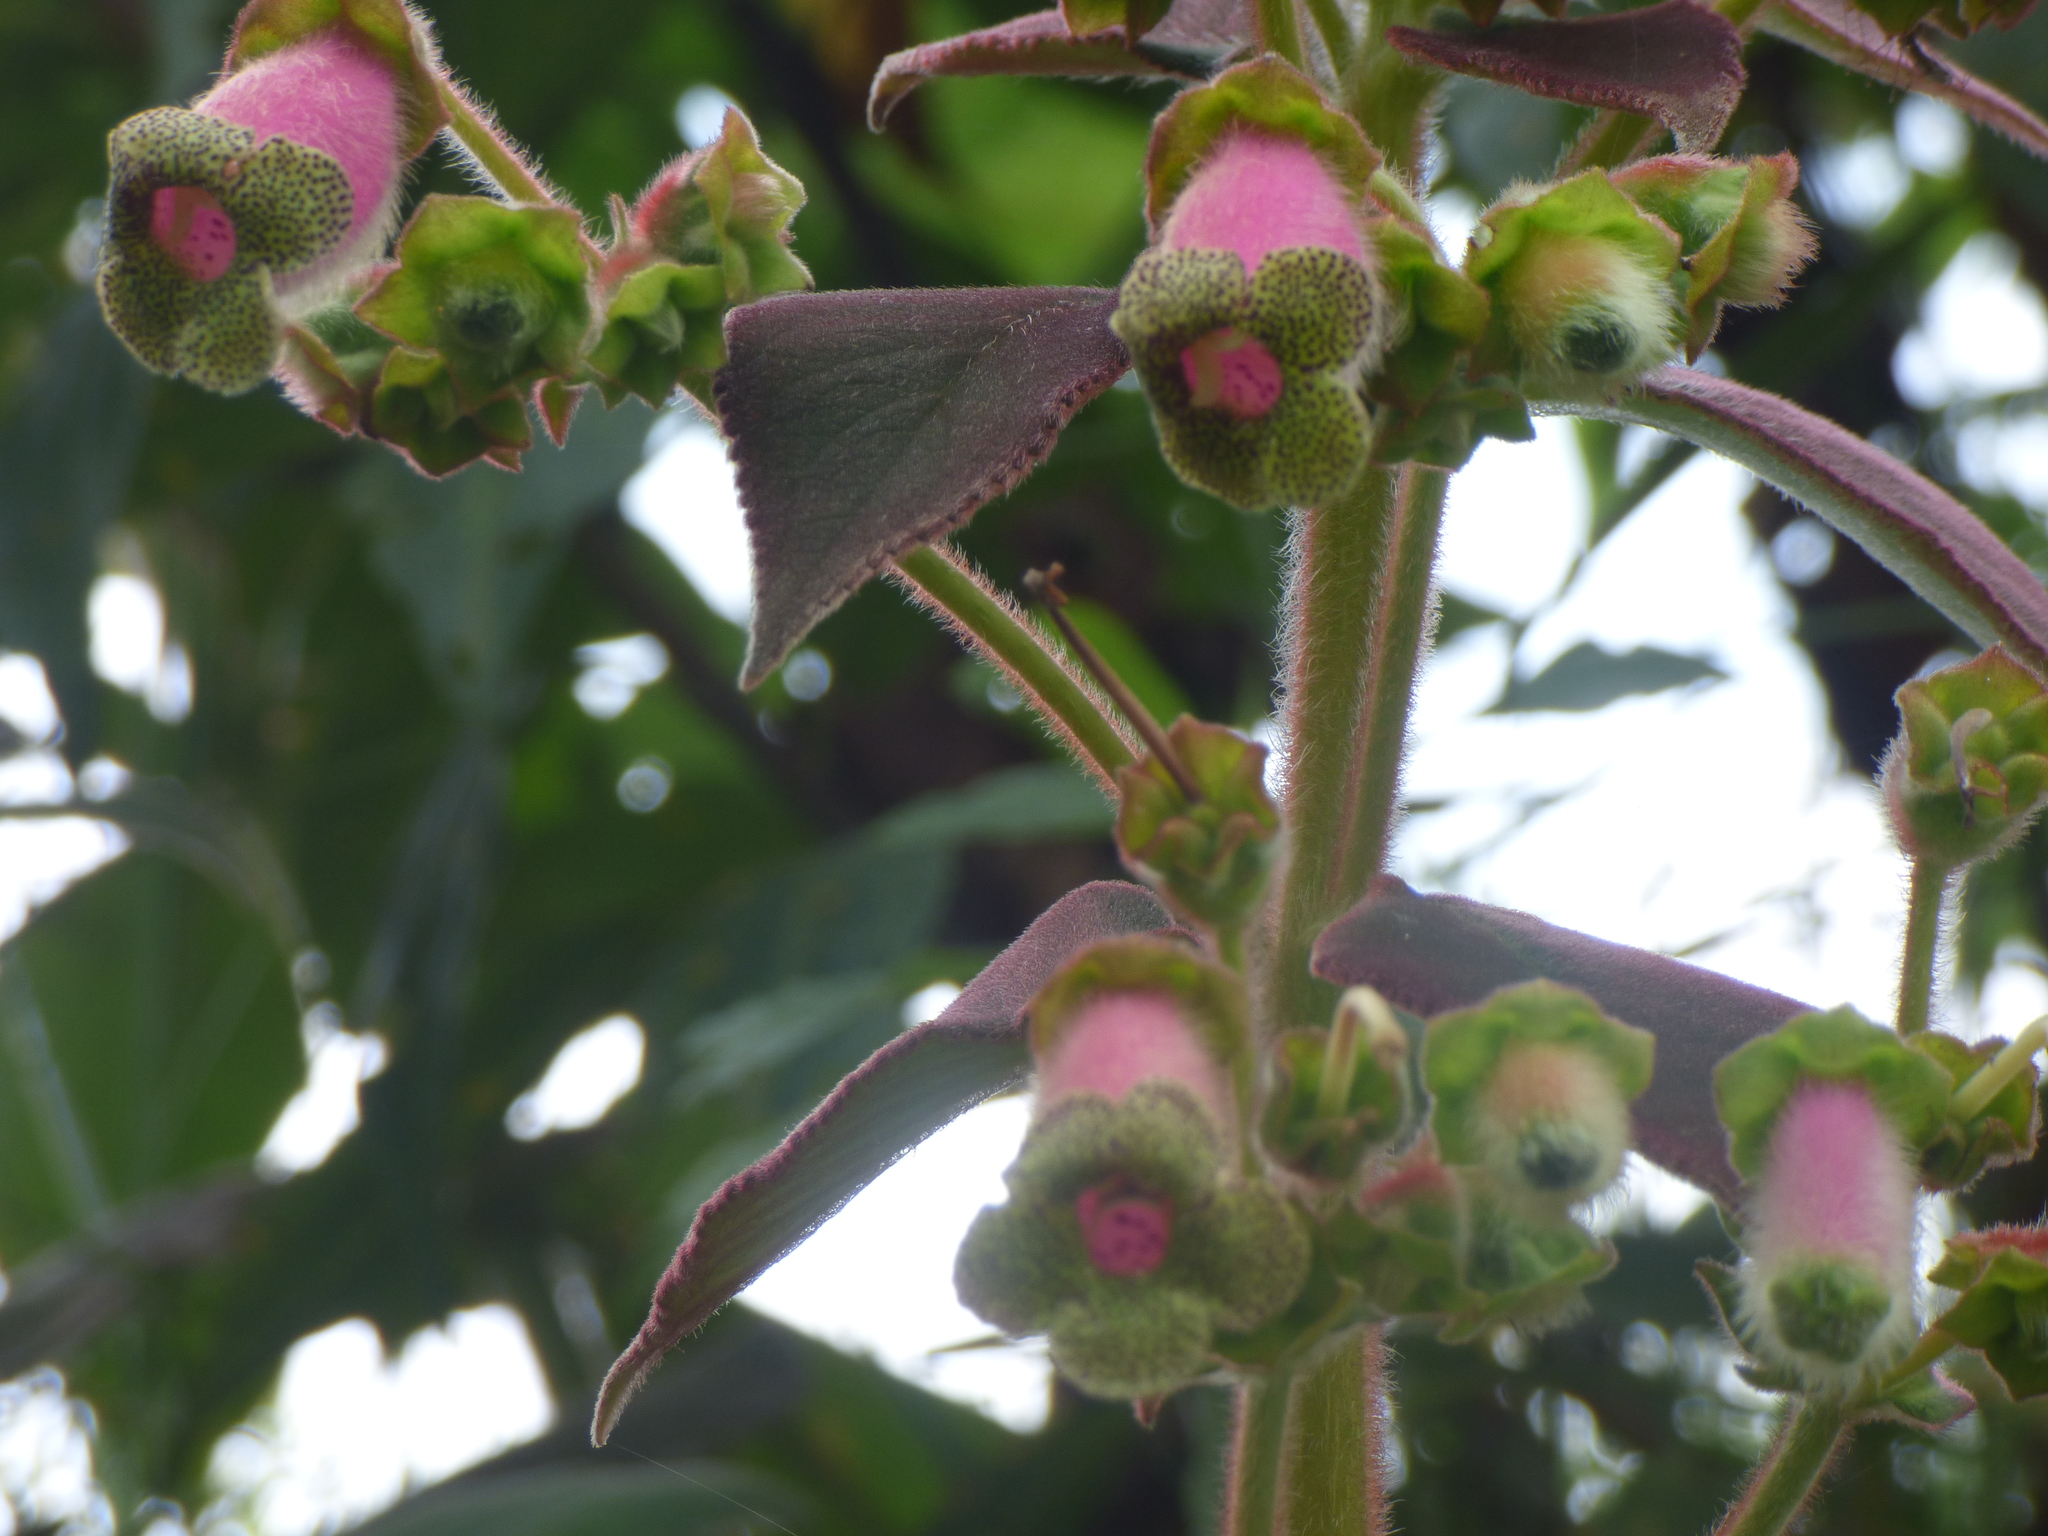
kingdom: Plantae
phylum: Tracheophyta
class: Magnoliopsida
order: Lamiales
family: Gesneriaceae
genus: Kohleria
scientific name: Kohleria warszewiczii
